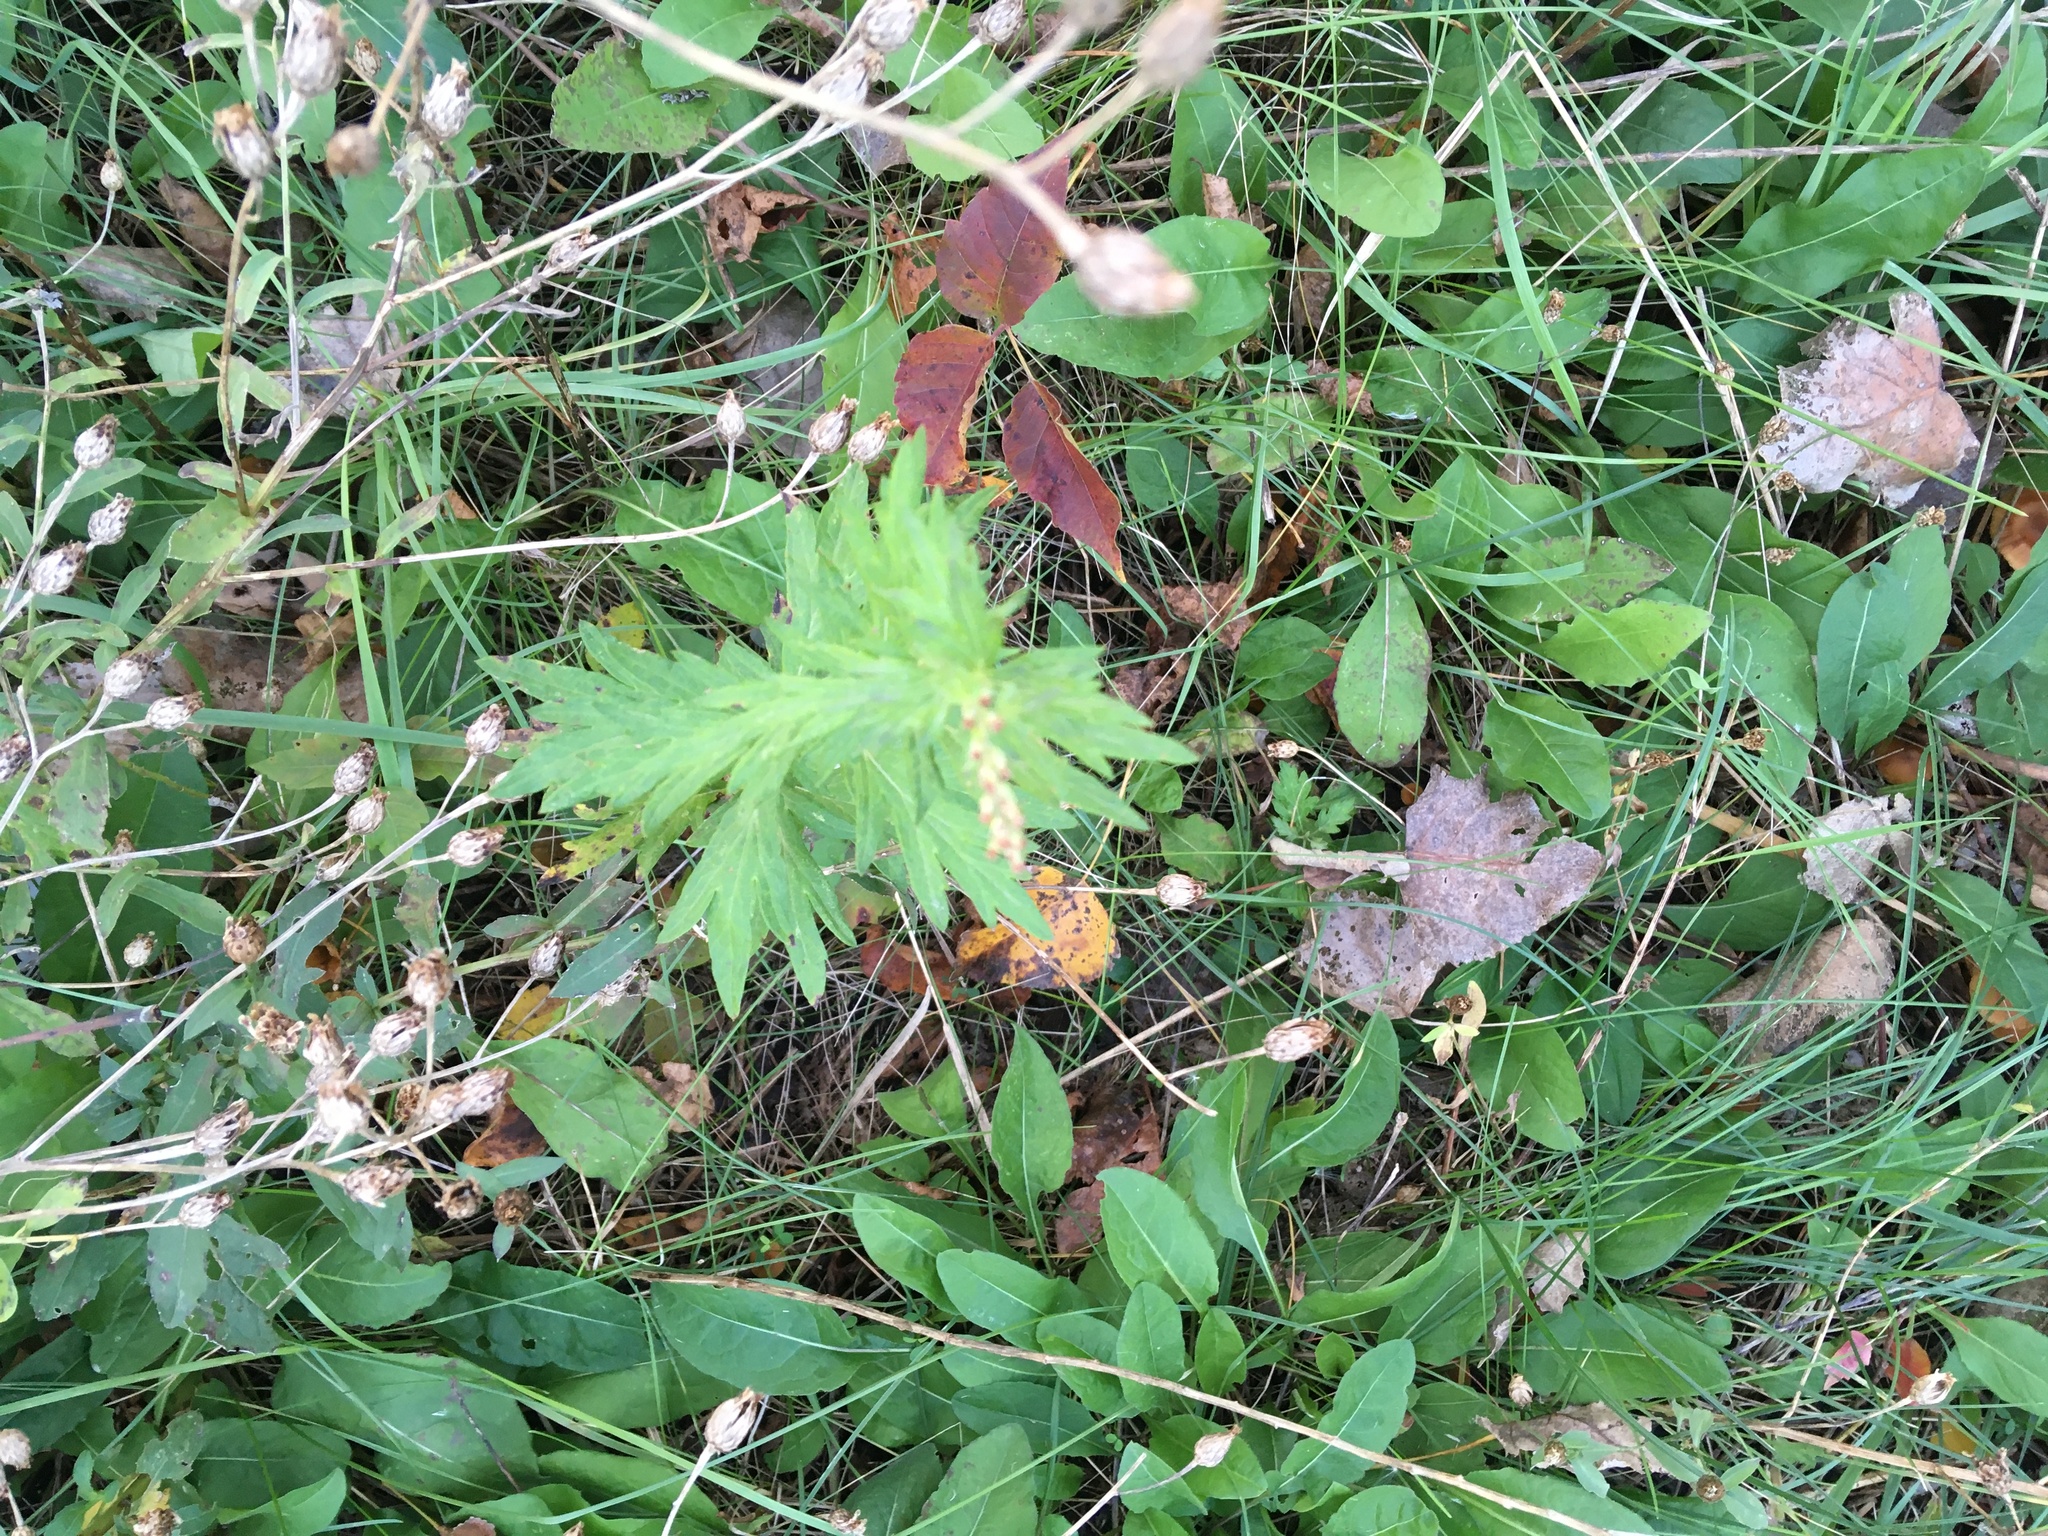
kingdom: Plantae
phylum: Tracheophyta
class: Magnoliopsida
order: Asterales
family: Asteraceae
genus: Artemisia
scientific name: Artemisia vulgaris
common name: Mugwort
